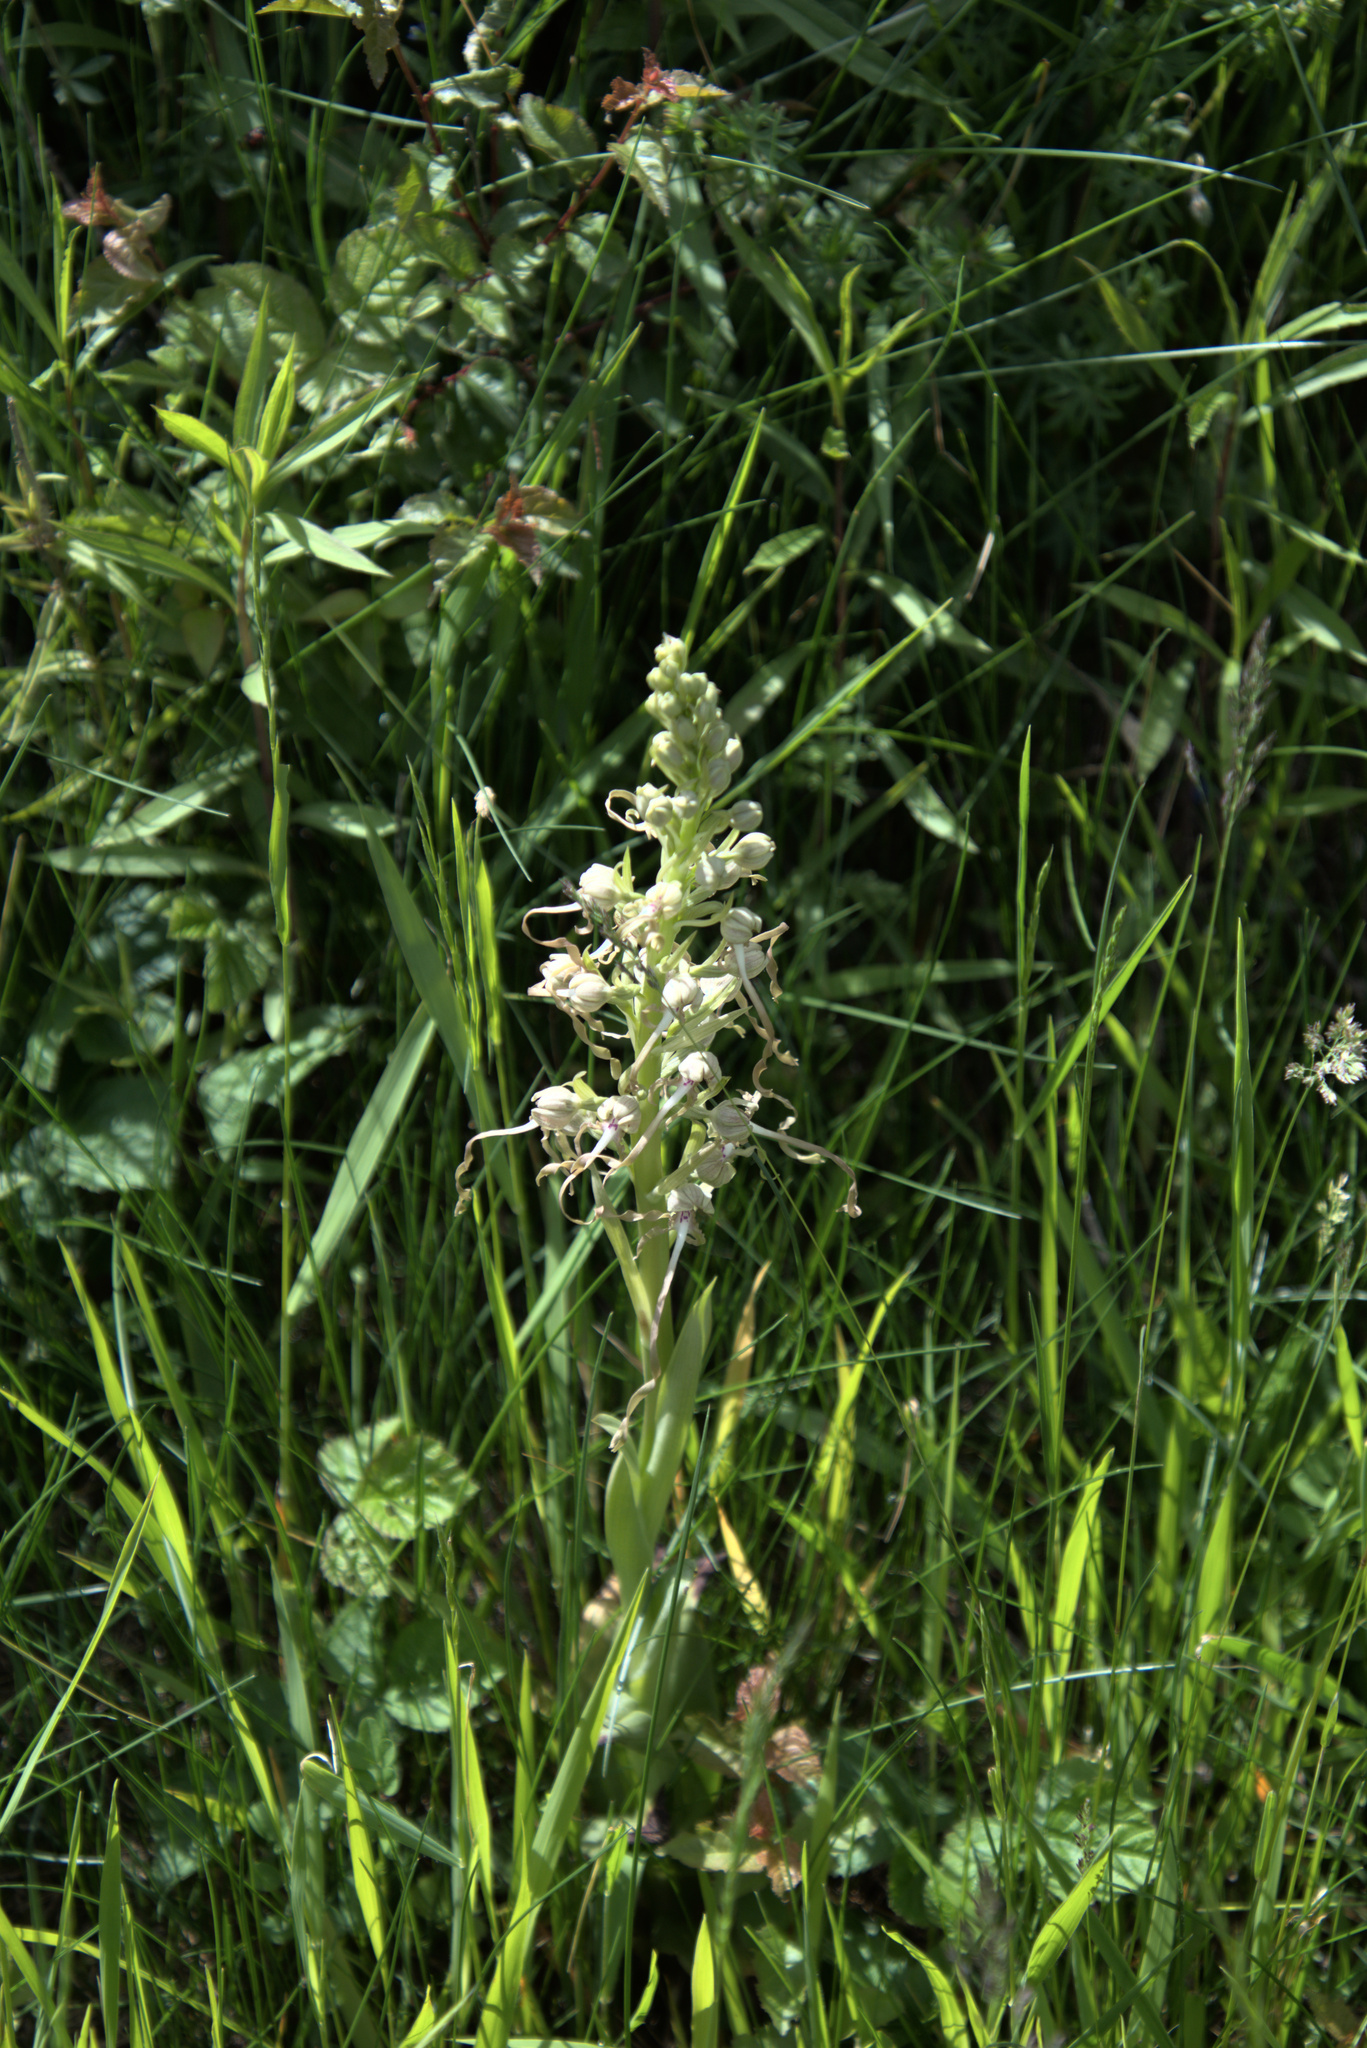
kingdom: Plantae
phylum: Tracheophyta
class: Liliopsida
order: Asparagales
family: Orchidaceae
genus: Himantoglossum
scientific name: Himantoglossum hircinum
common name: Lizard orchid
